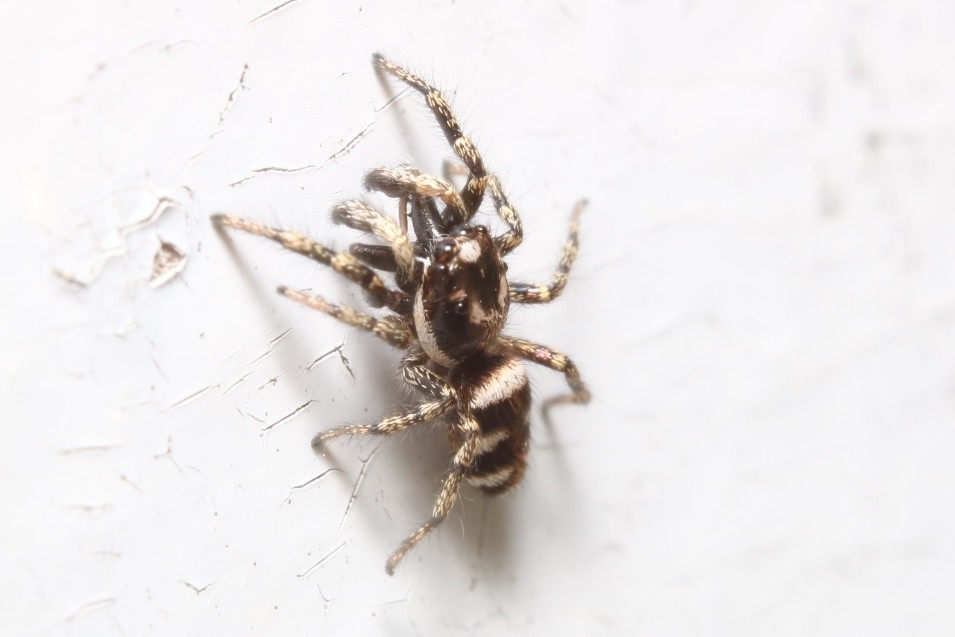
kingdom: Animalia
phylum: Arthropoda
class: Arachnida
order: Araneae
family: Salticidae
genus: Salticus
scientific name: Salticus scenicus
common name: Zebra jumper
